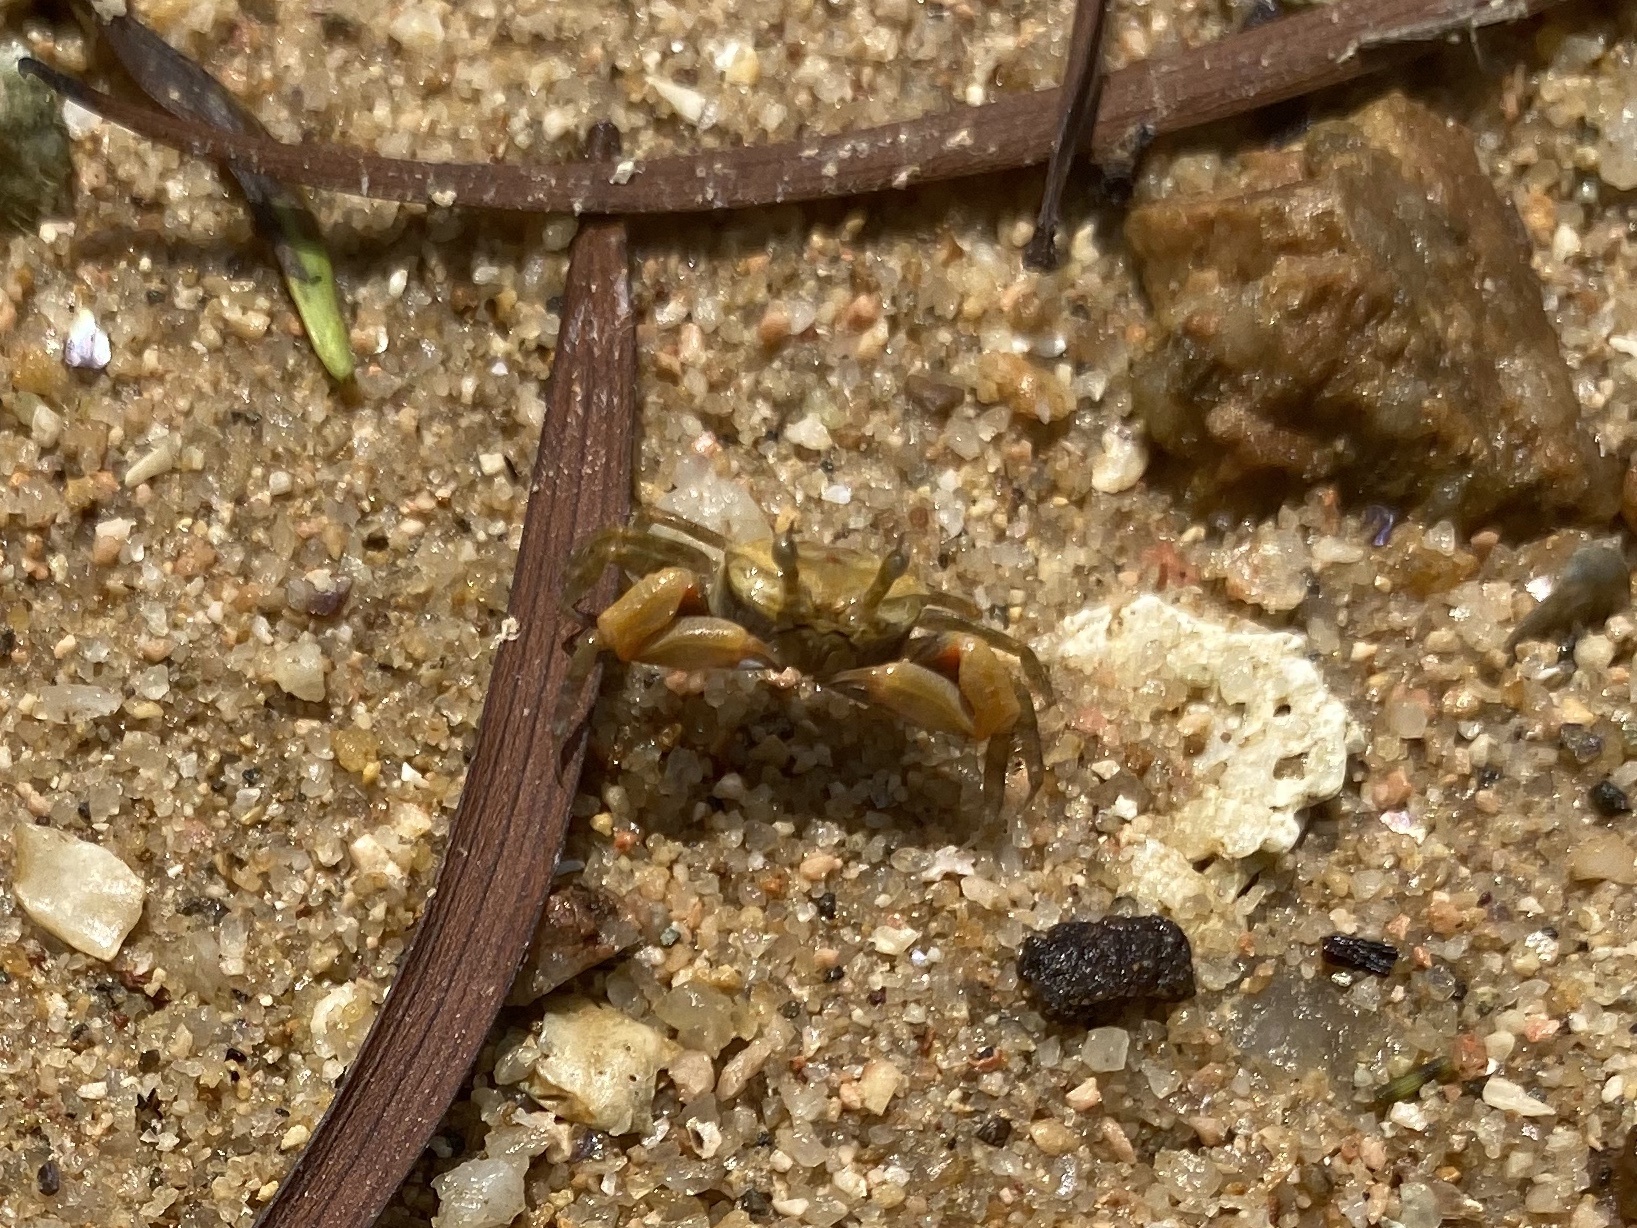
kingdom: Animalia
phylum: Arthropoda
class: Malacostraca
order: Decapoda
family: Dotillidae
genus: Tmethypocoelis
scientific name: Tmethypocoelis ceratophora
